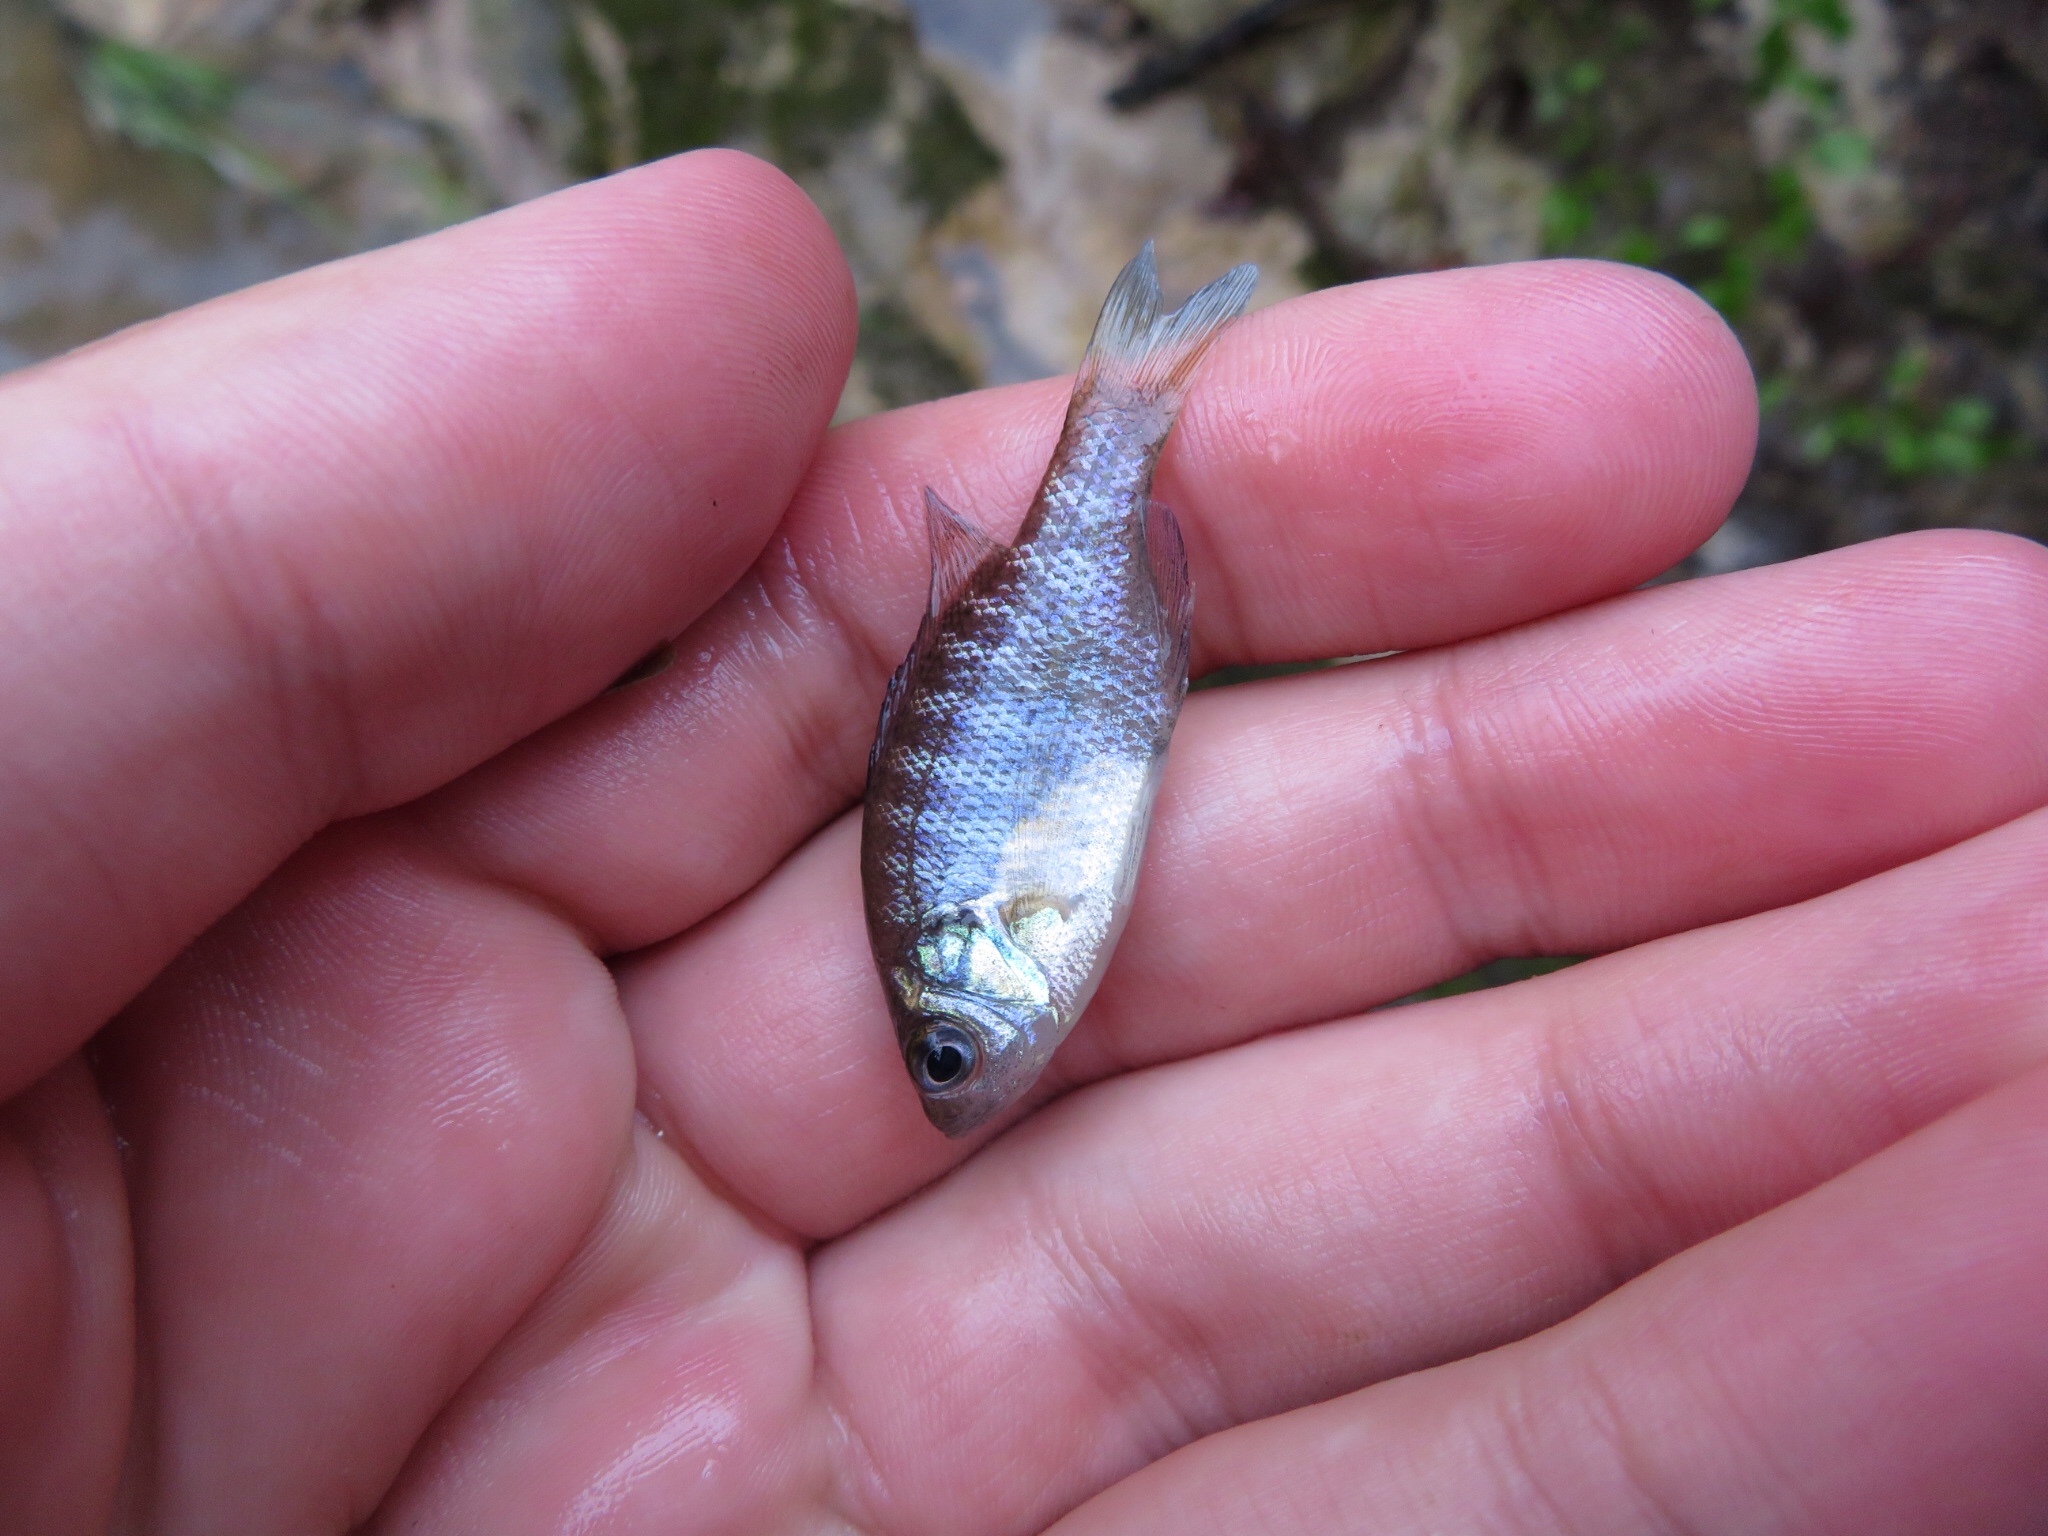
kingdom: Animalia
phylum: Chordata
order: Perciformes
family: Centrarchidae
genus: Lepomis
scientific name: Lepomis macrochirus
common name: Bluegill
